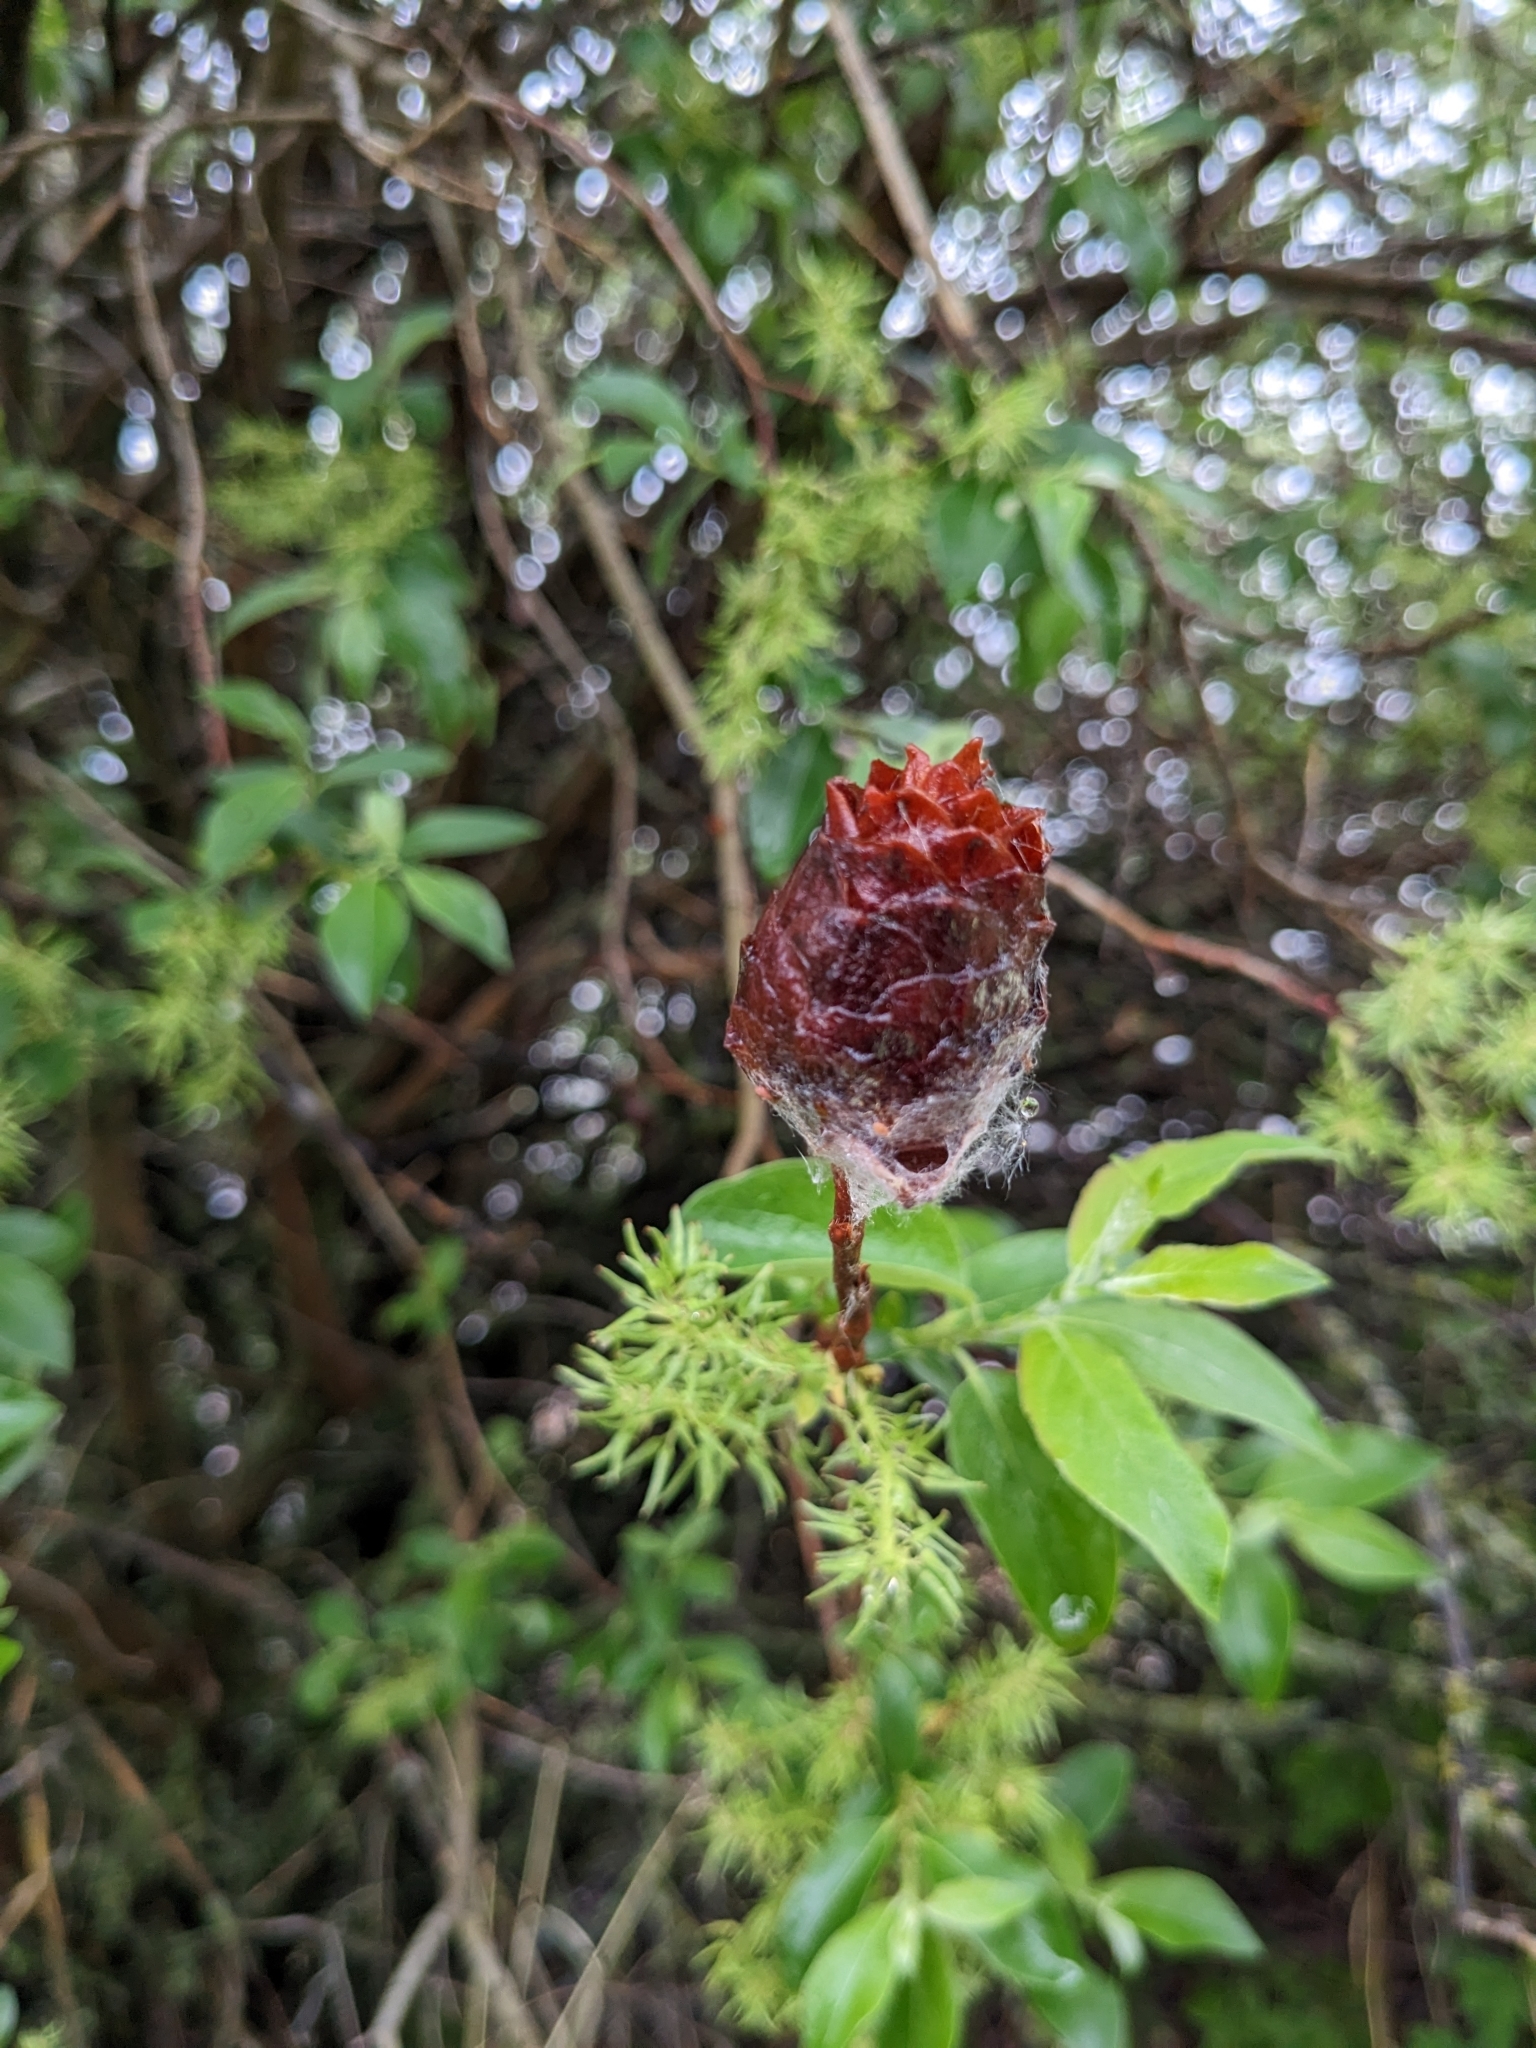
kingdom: Animalia
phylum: Arthropoda
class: Insecta
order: Diptera
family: Cecidomyiidae
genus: Rabdophaga
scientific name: Rabdophaga strobiloides
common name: Willow pinecone gall midge
